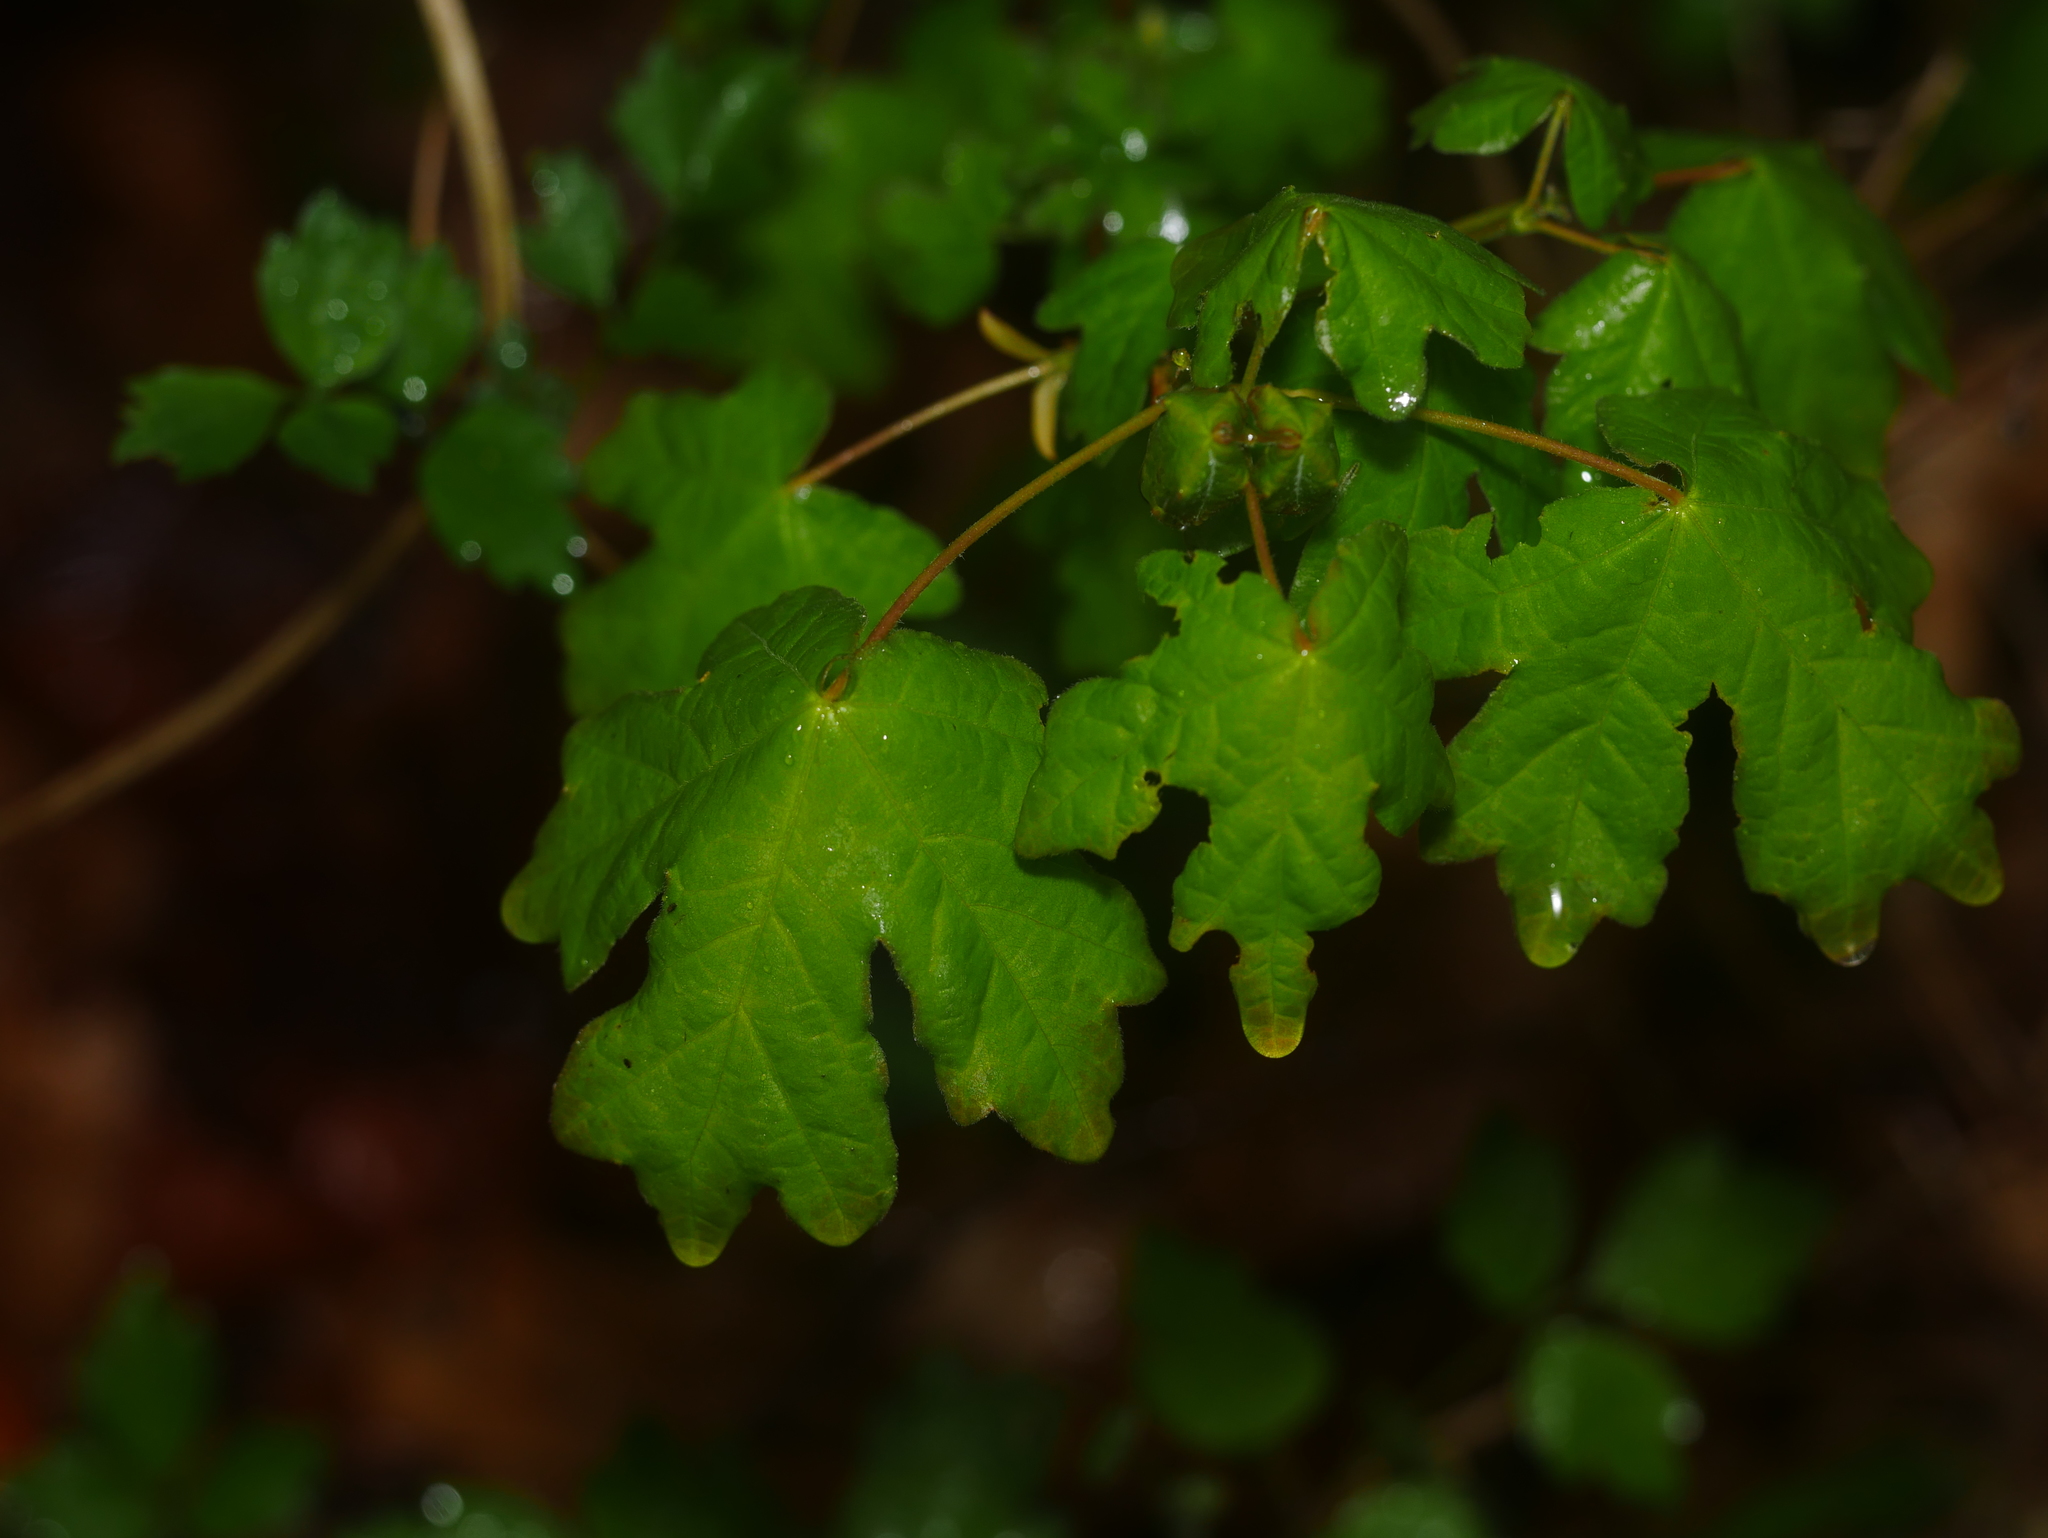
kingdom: Plantae
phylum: Tracheophyta
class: Magnoliopsida
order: Sapindales
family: Sapindaceae
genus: Acer
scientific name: Acer campestre
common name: Field maple
